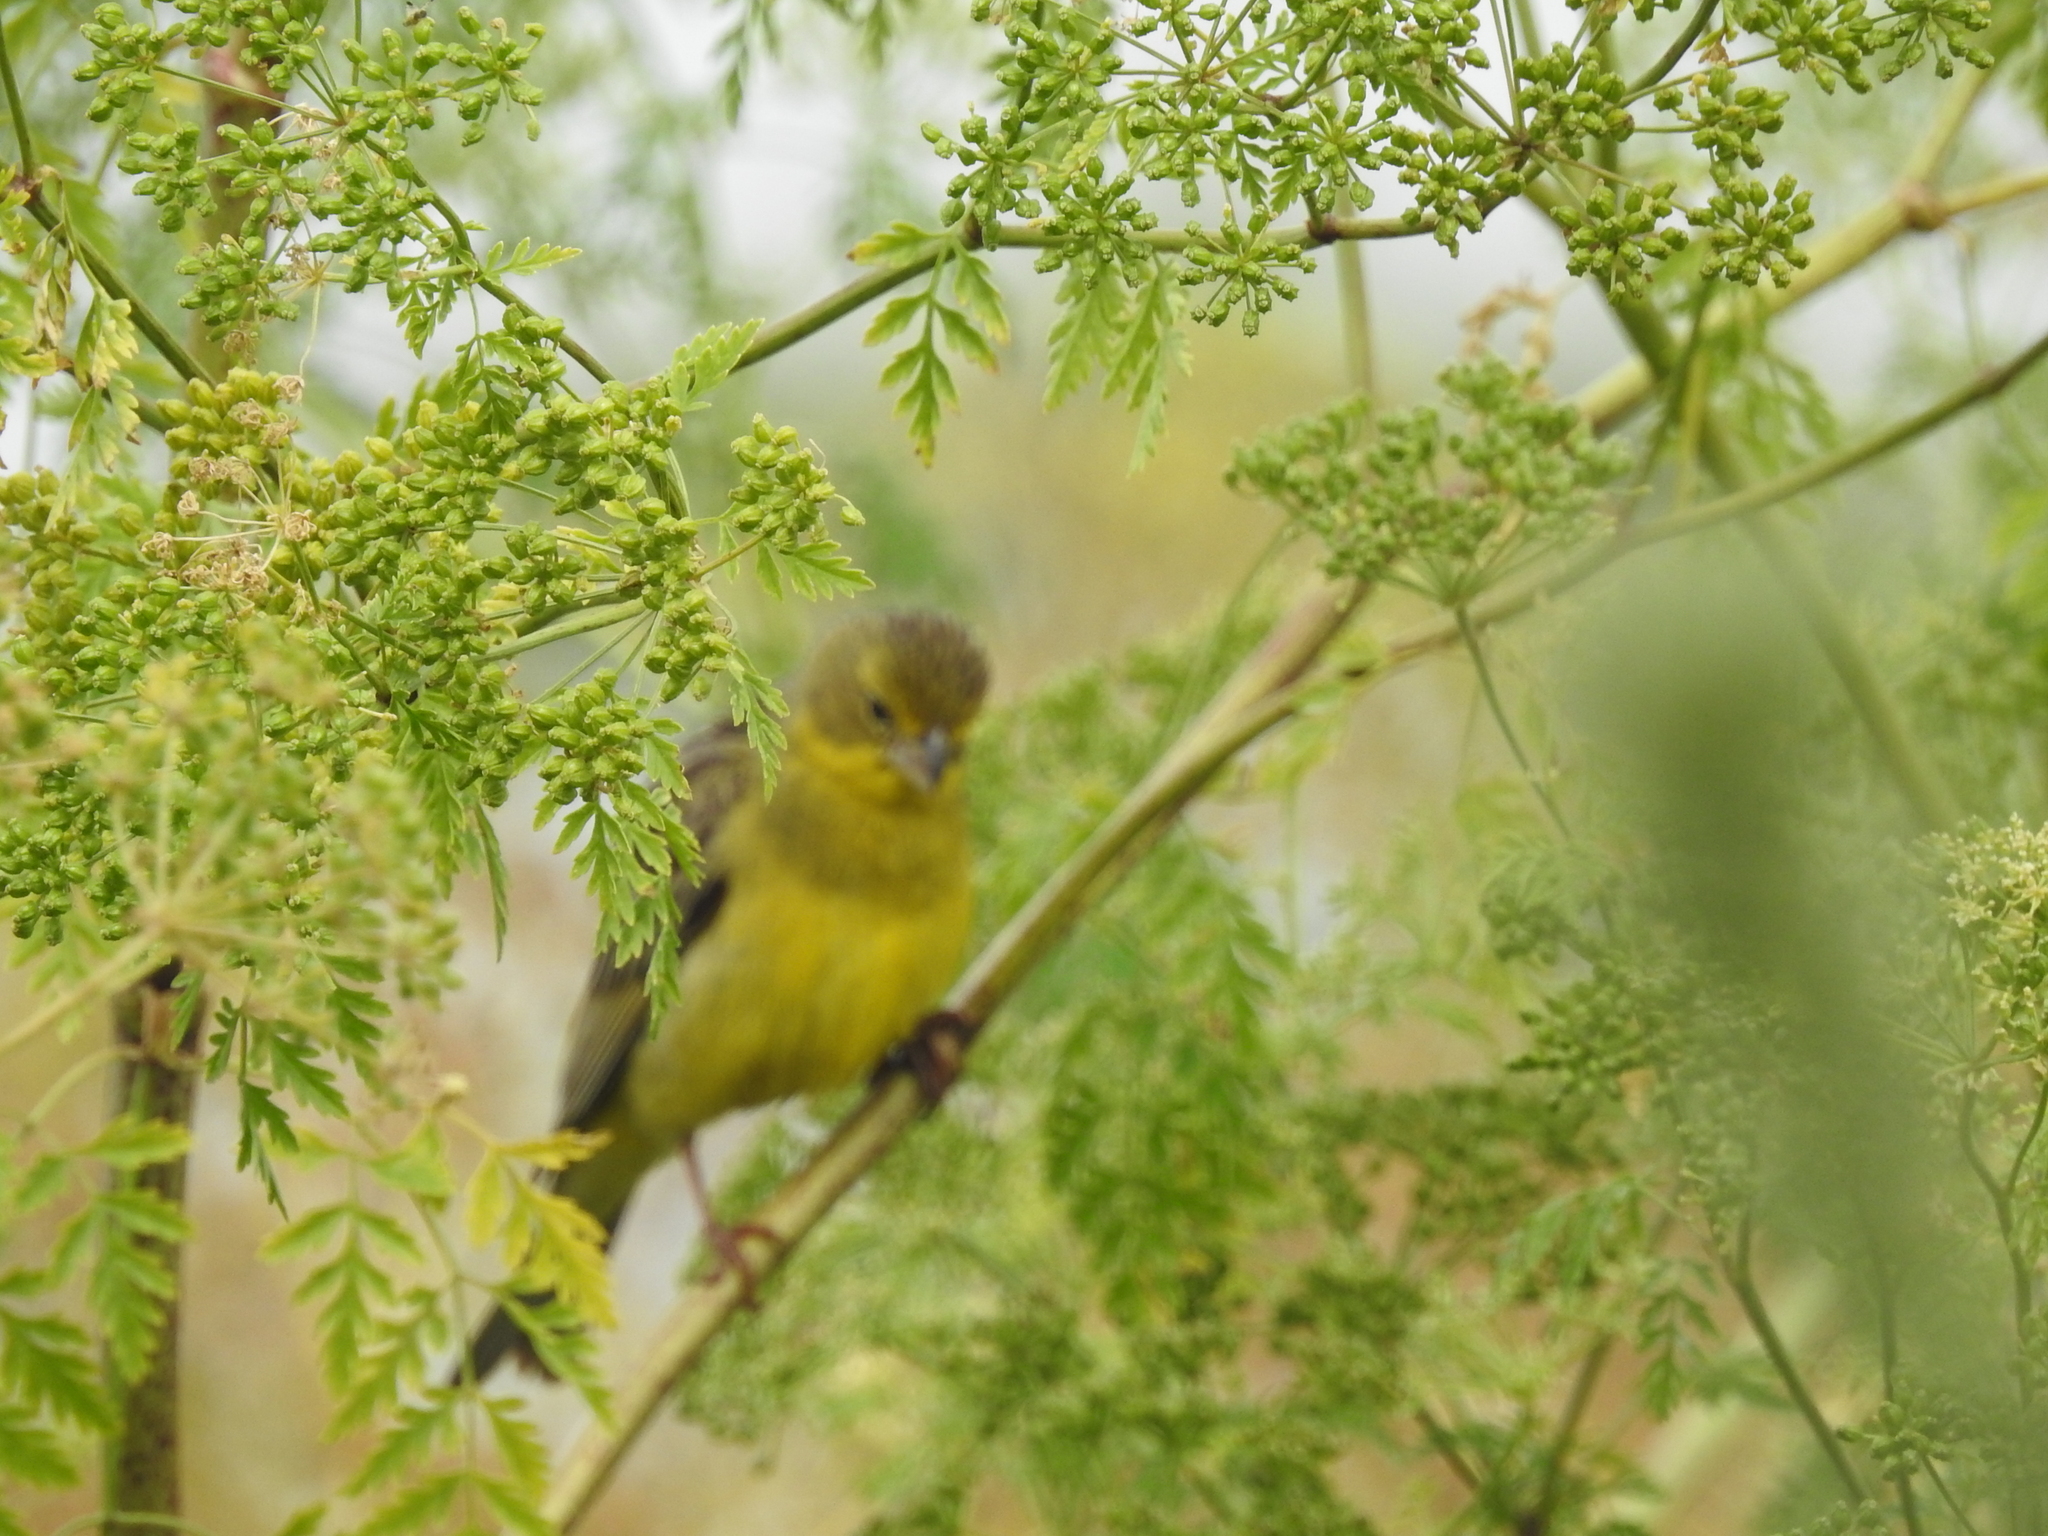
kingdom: Animalia
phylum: Chordata
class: Aves
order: Passeriformes
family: Thraupidae
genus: Sicalis
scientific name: Sicalis luteola
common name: Grassland yellow-finch
